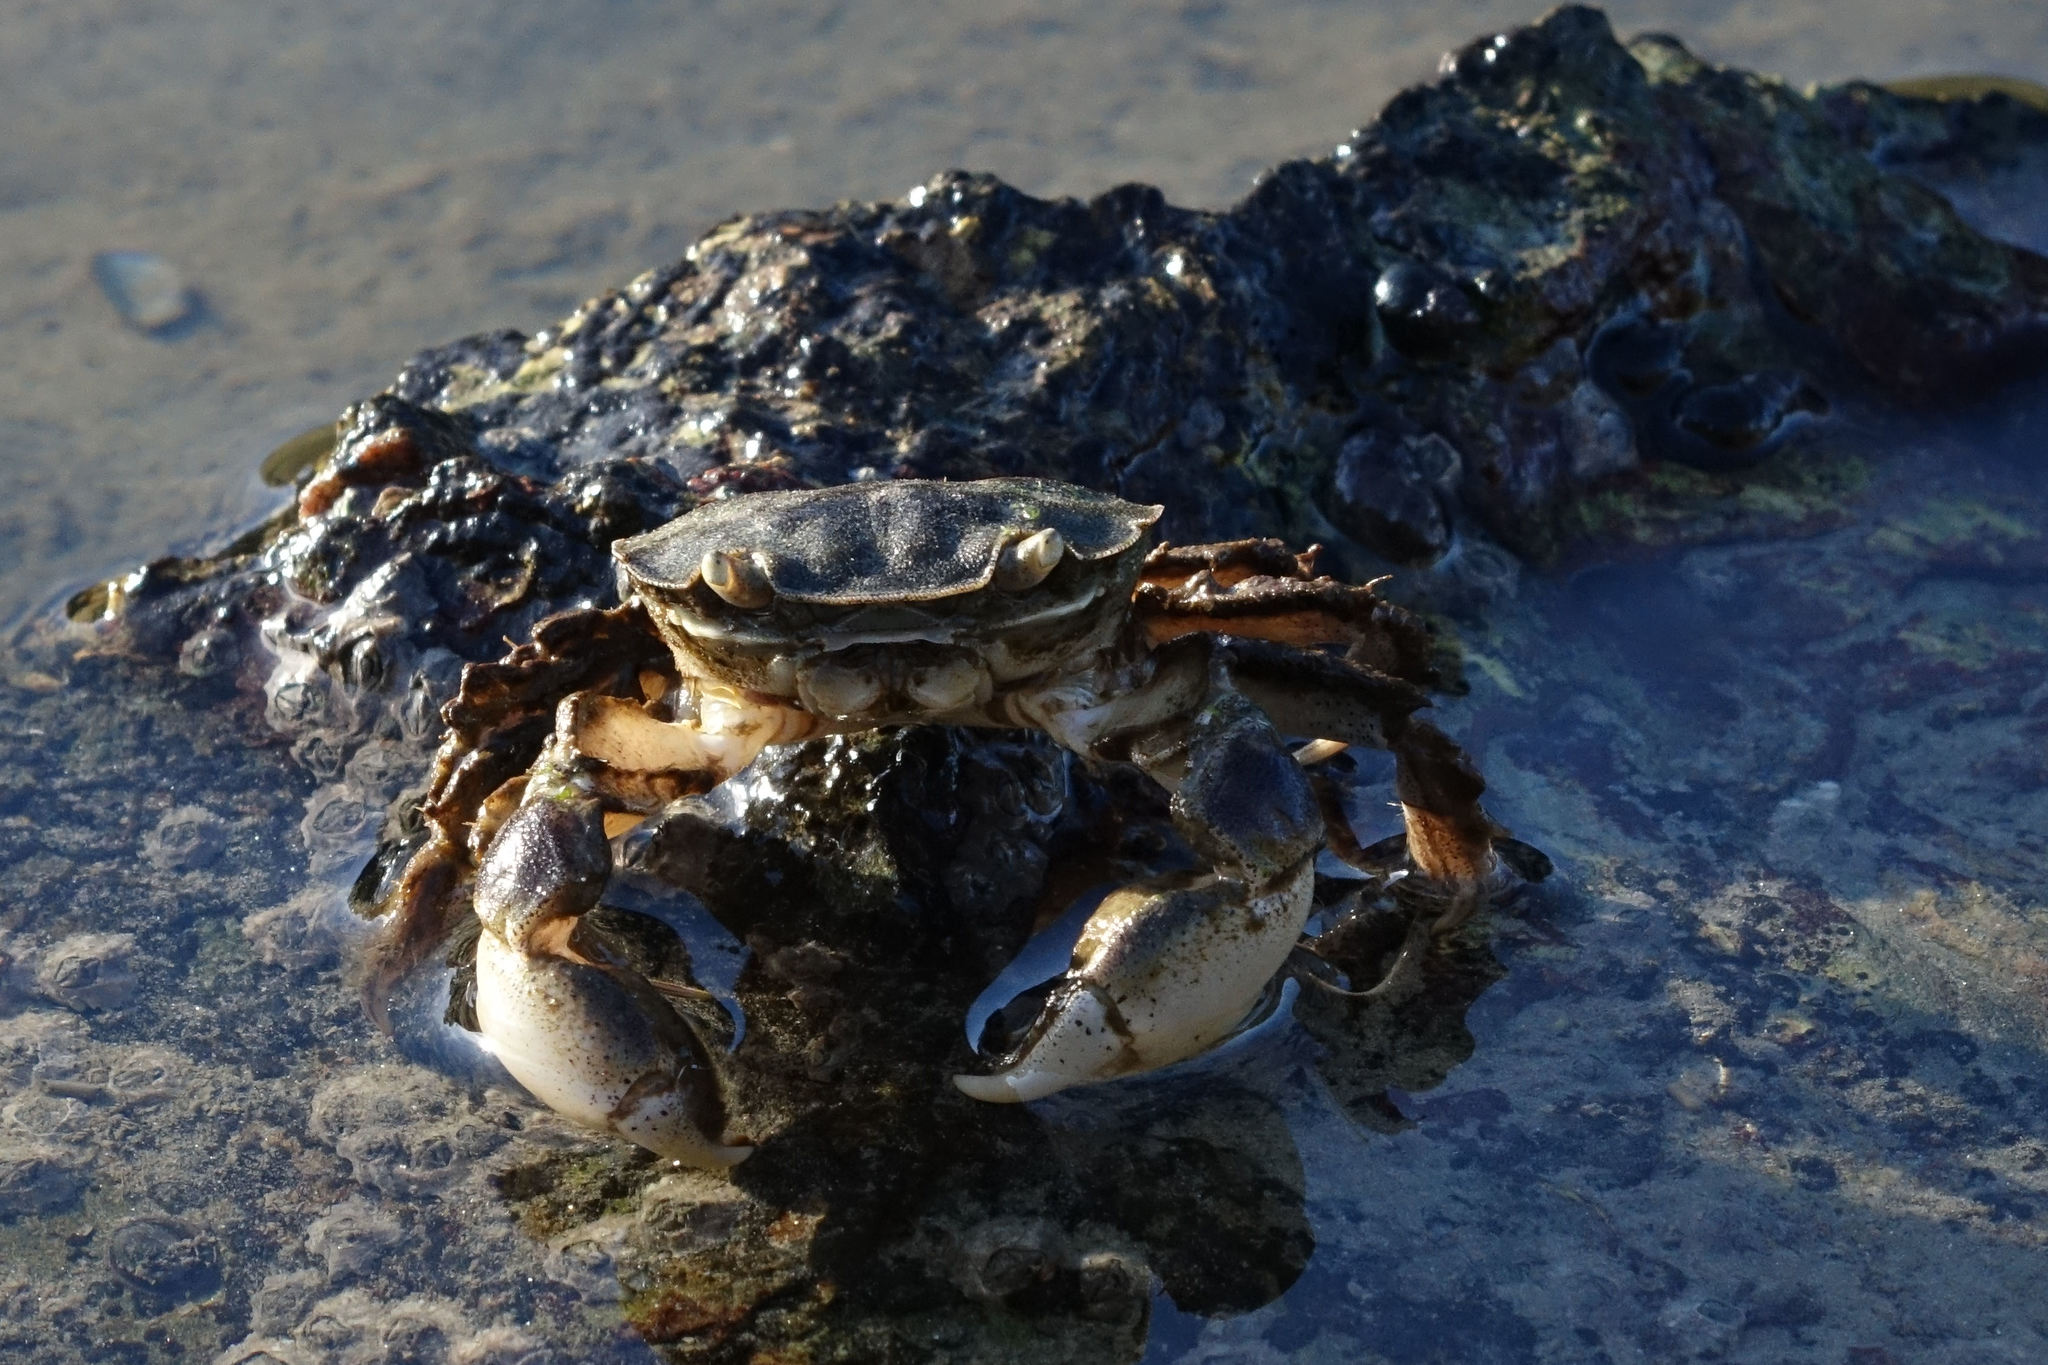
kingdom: Animalia
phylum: Arthropoda
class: Malacostraca
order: Decapoda
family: Varunidae
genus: Hemigrapsus
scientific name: Hemigrapsus crenulatus
